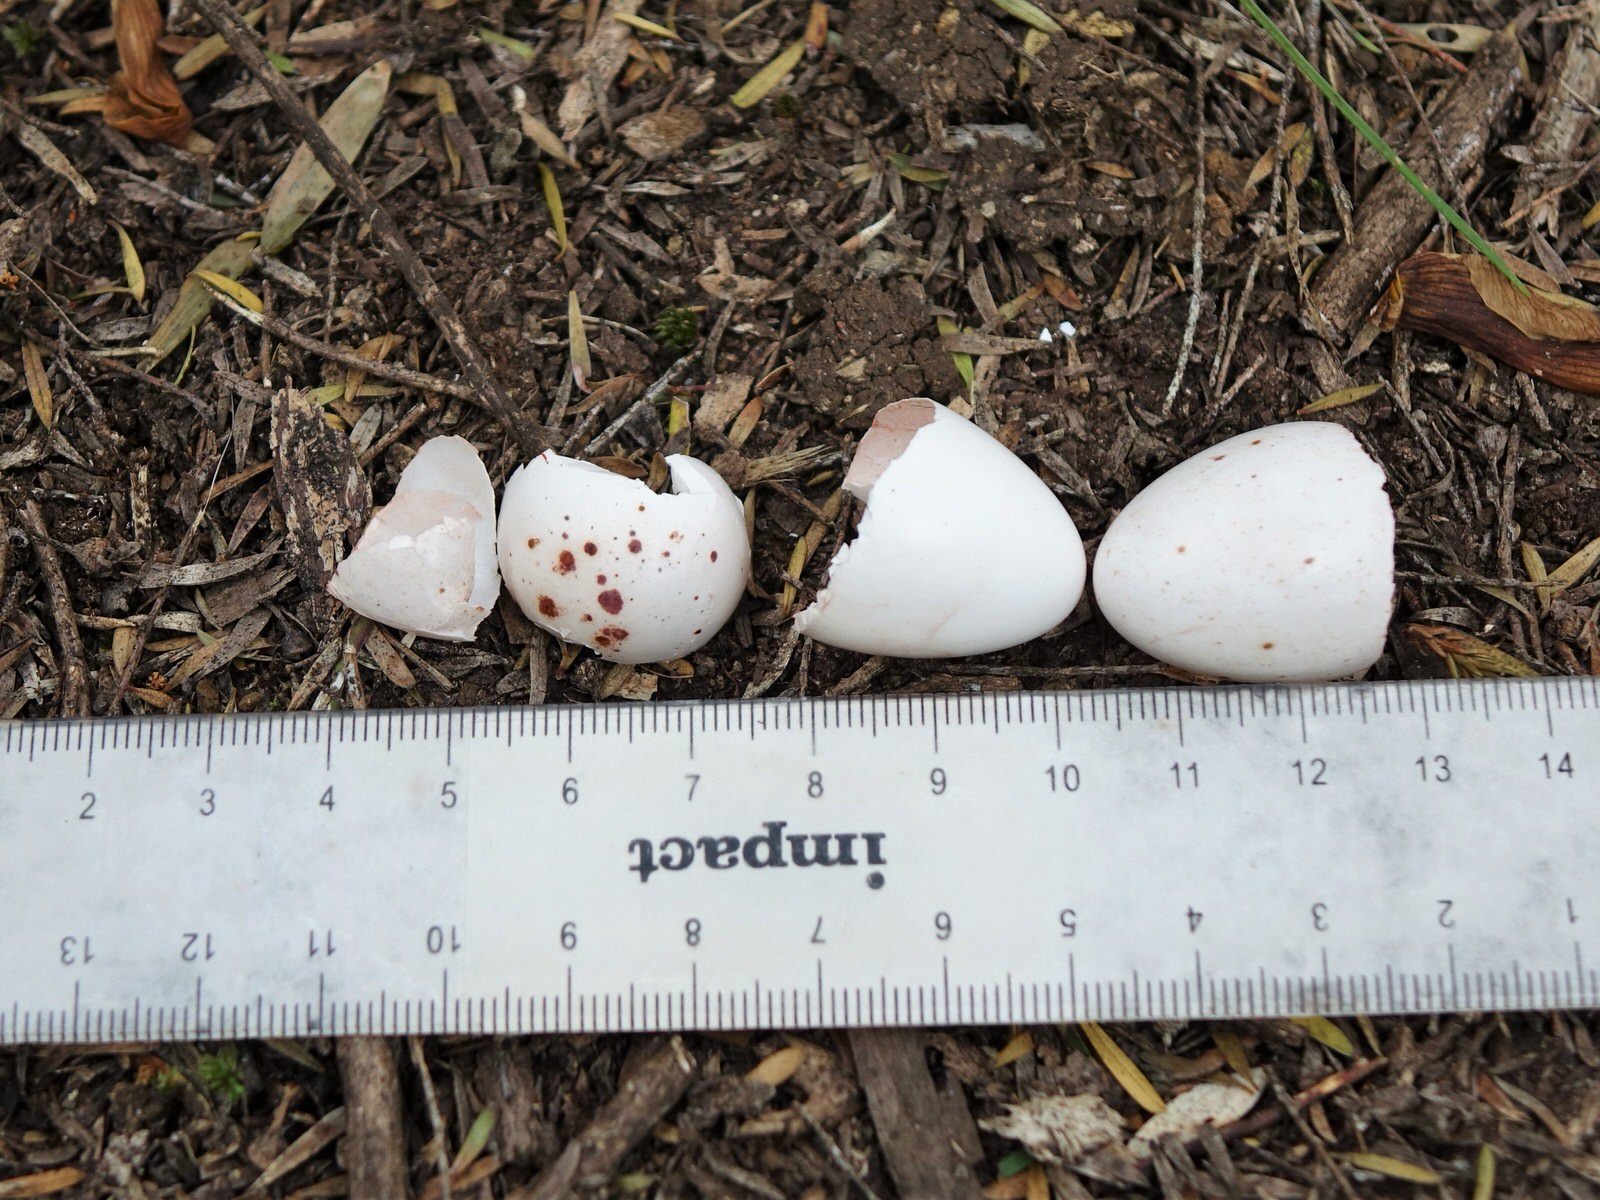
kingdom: Animalia
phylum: Chordata
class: Aves
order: Passeriformes
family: Meliphagidae
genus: Prosthemadera
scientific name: Prosthemadera novaeseelandiae
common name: Tui
